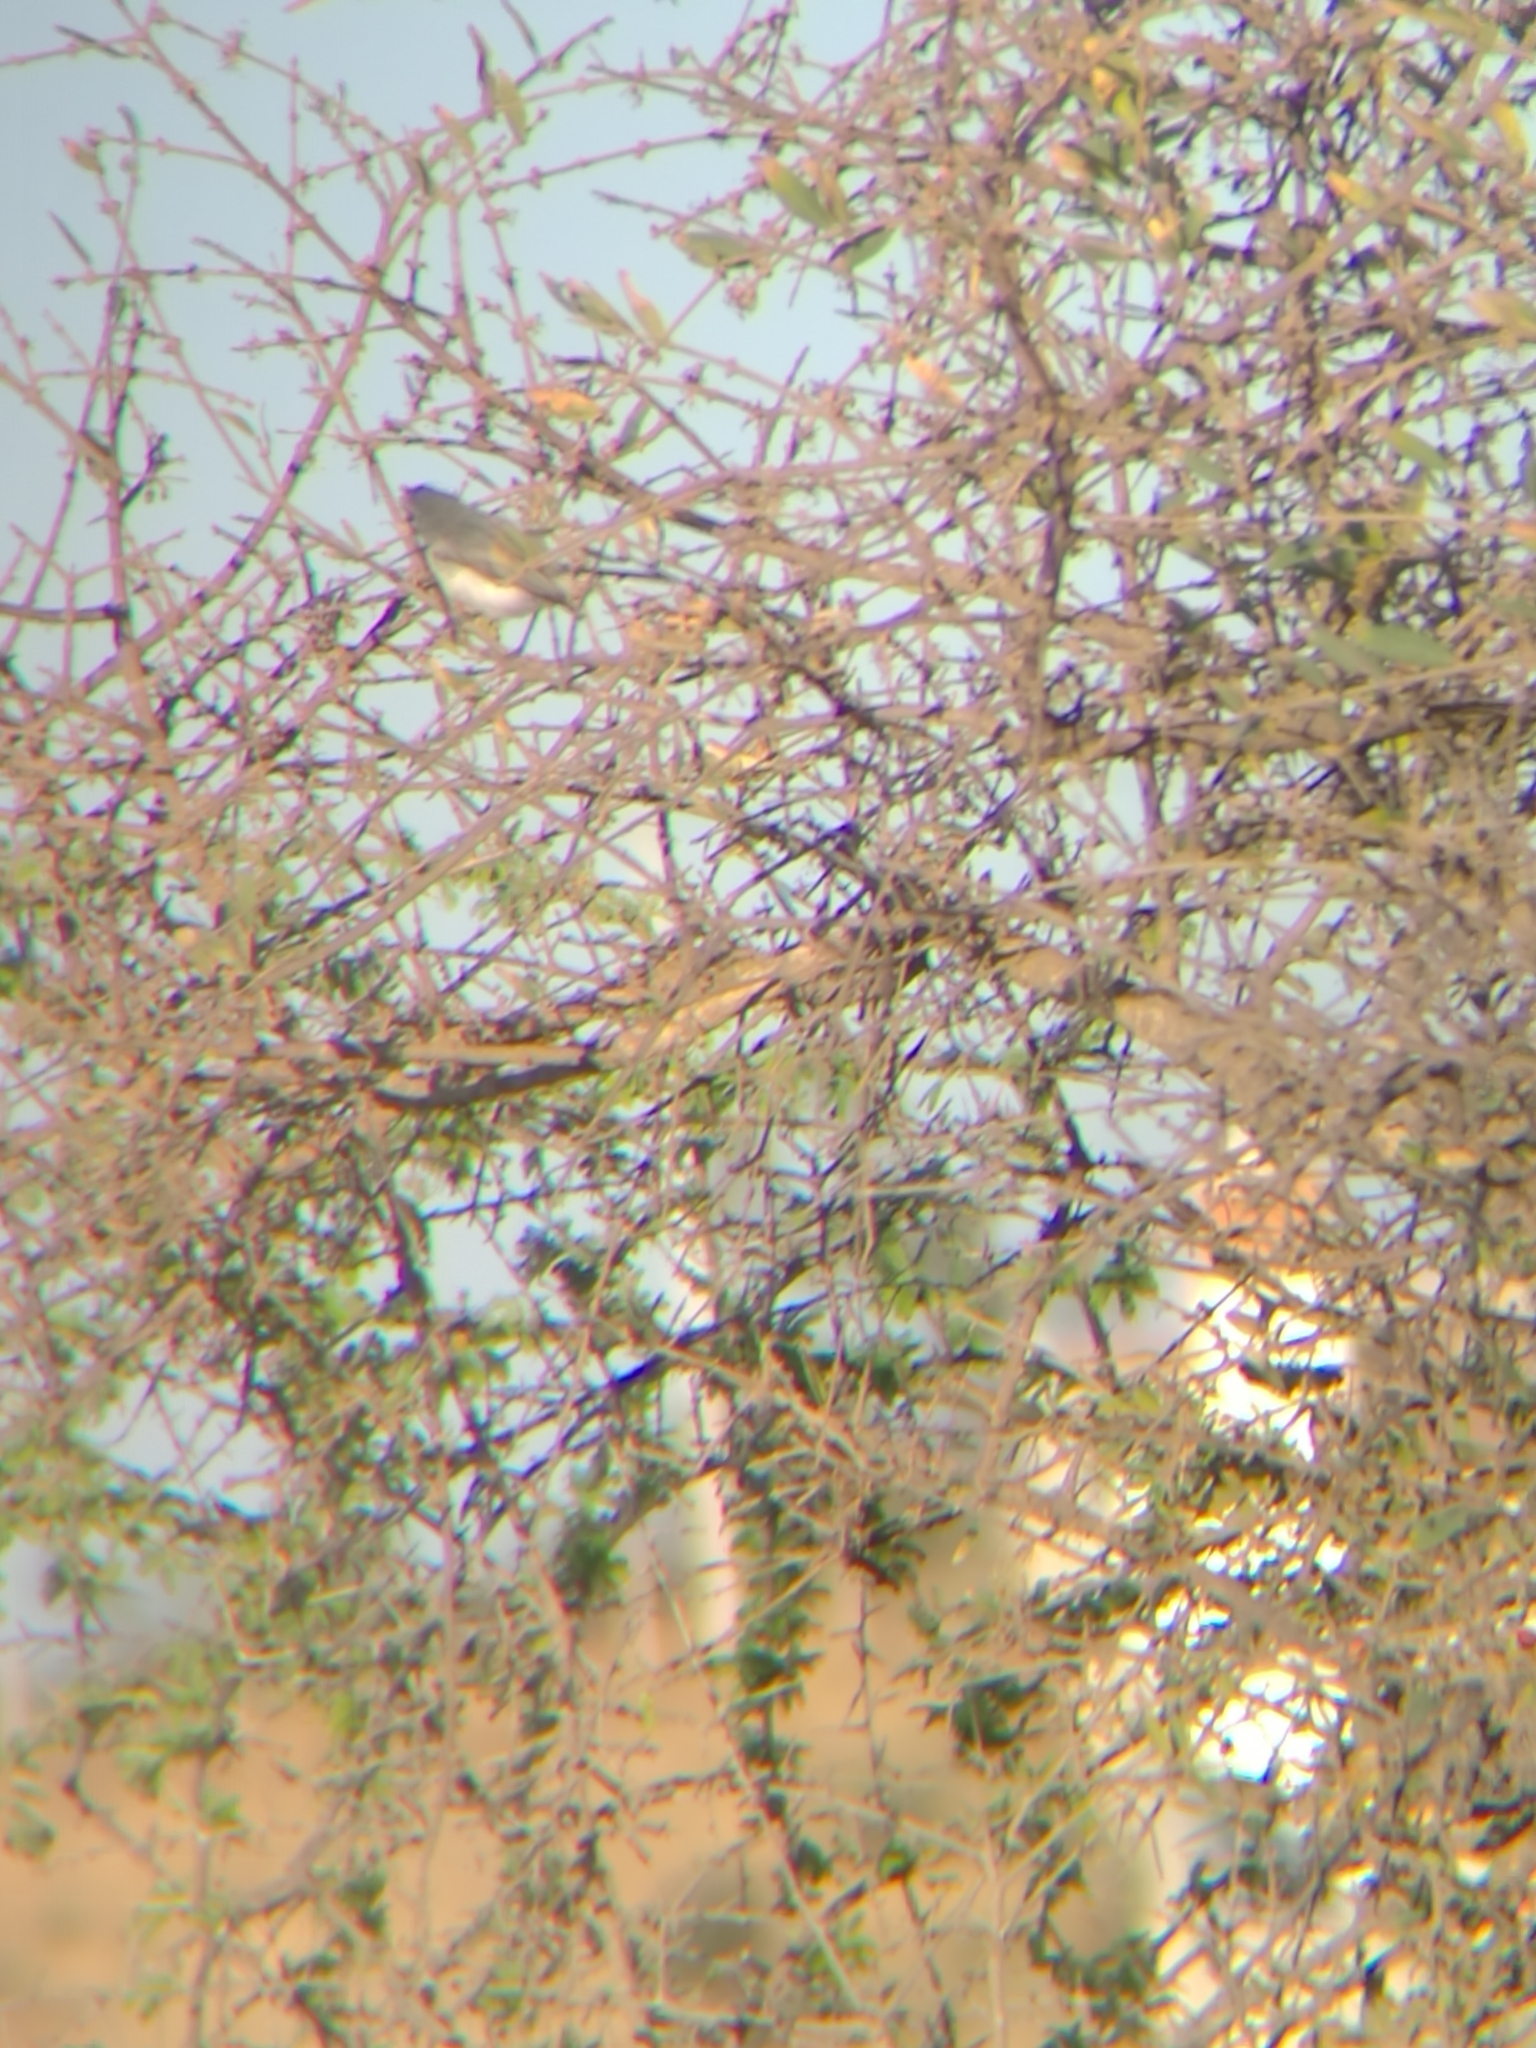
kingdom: Animalia
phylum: Chordata
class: Aves
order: Passeriformes
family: Polioptilidae
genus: Polioptila
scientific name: Polioptila caerulea
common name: Blue-gray gnatcatcher
